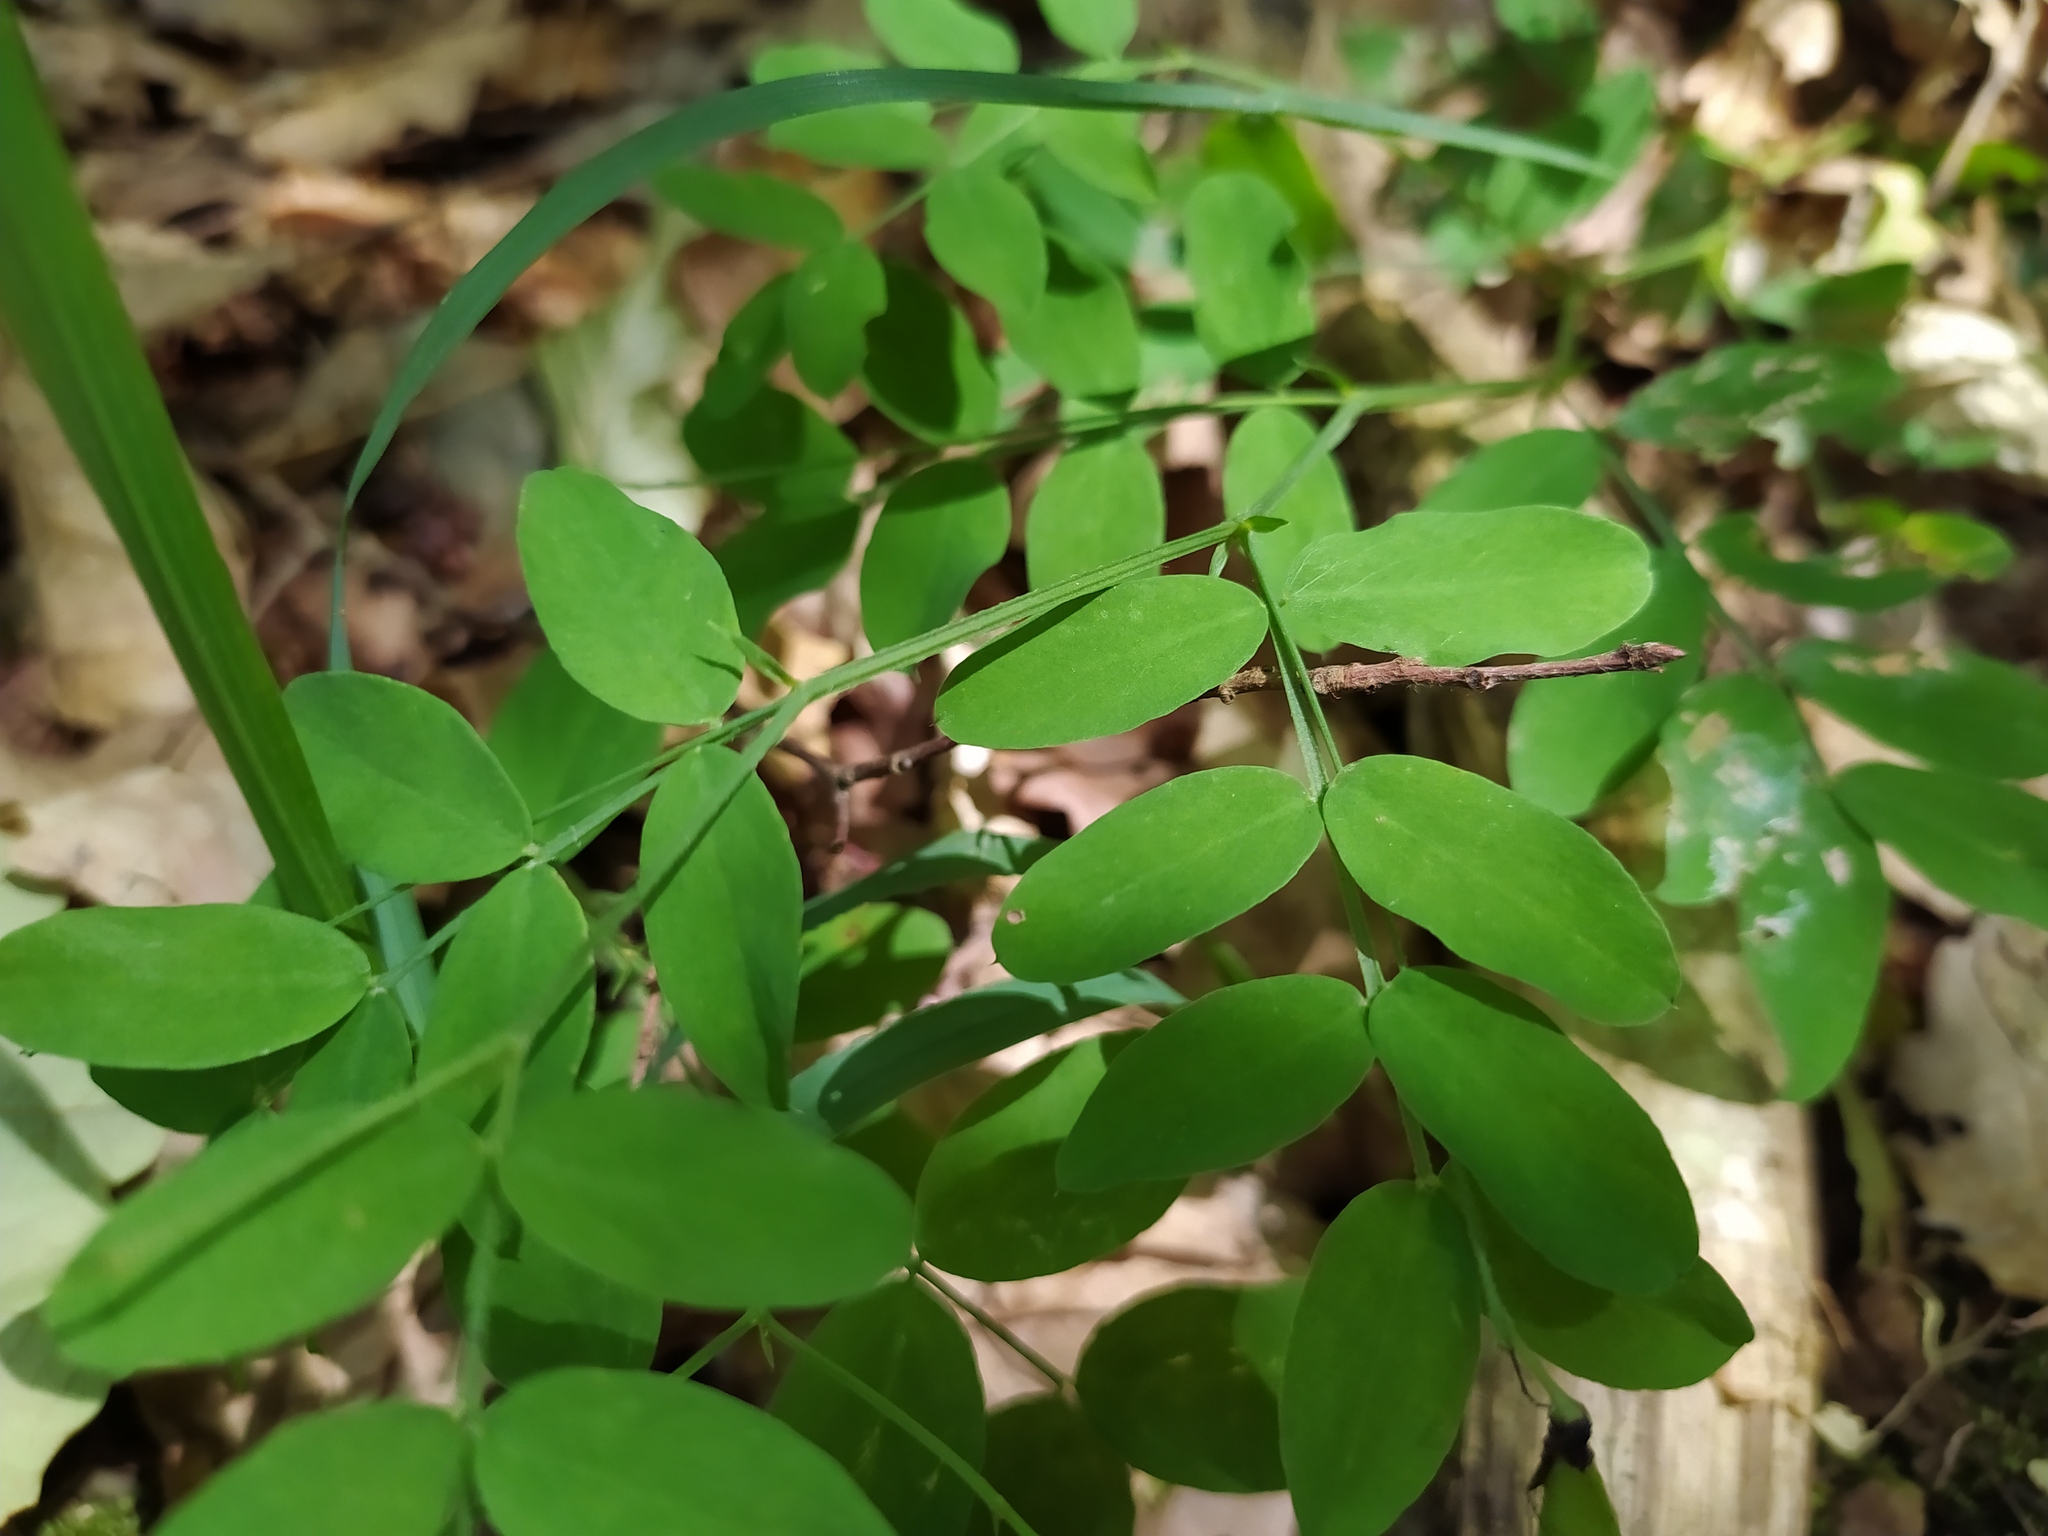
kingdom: Plantae
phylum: Tracheophyta
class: Magnoliopsida
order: Fabales
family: Fabaceae
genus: Lathyrus
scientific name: Lathyrus niger
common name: Black pea
